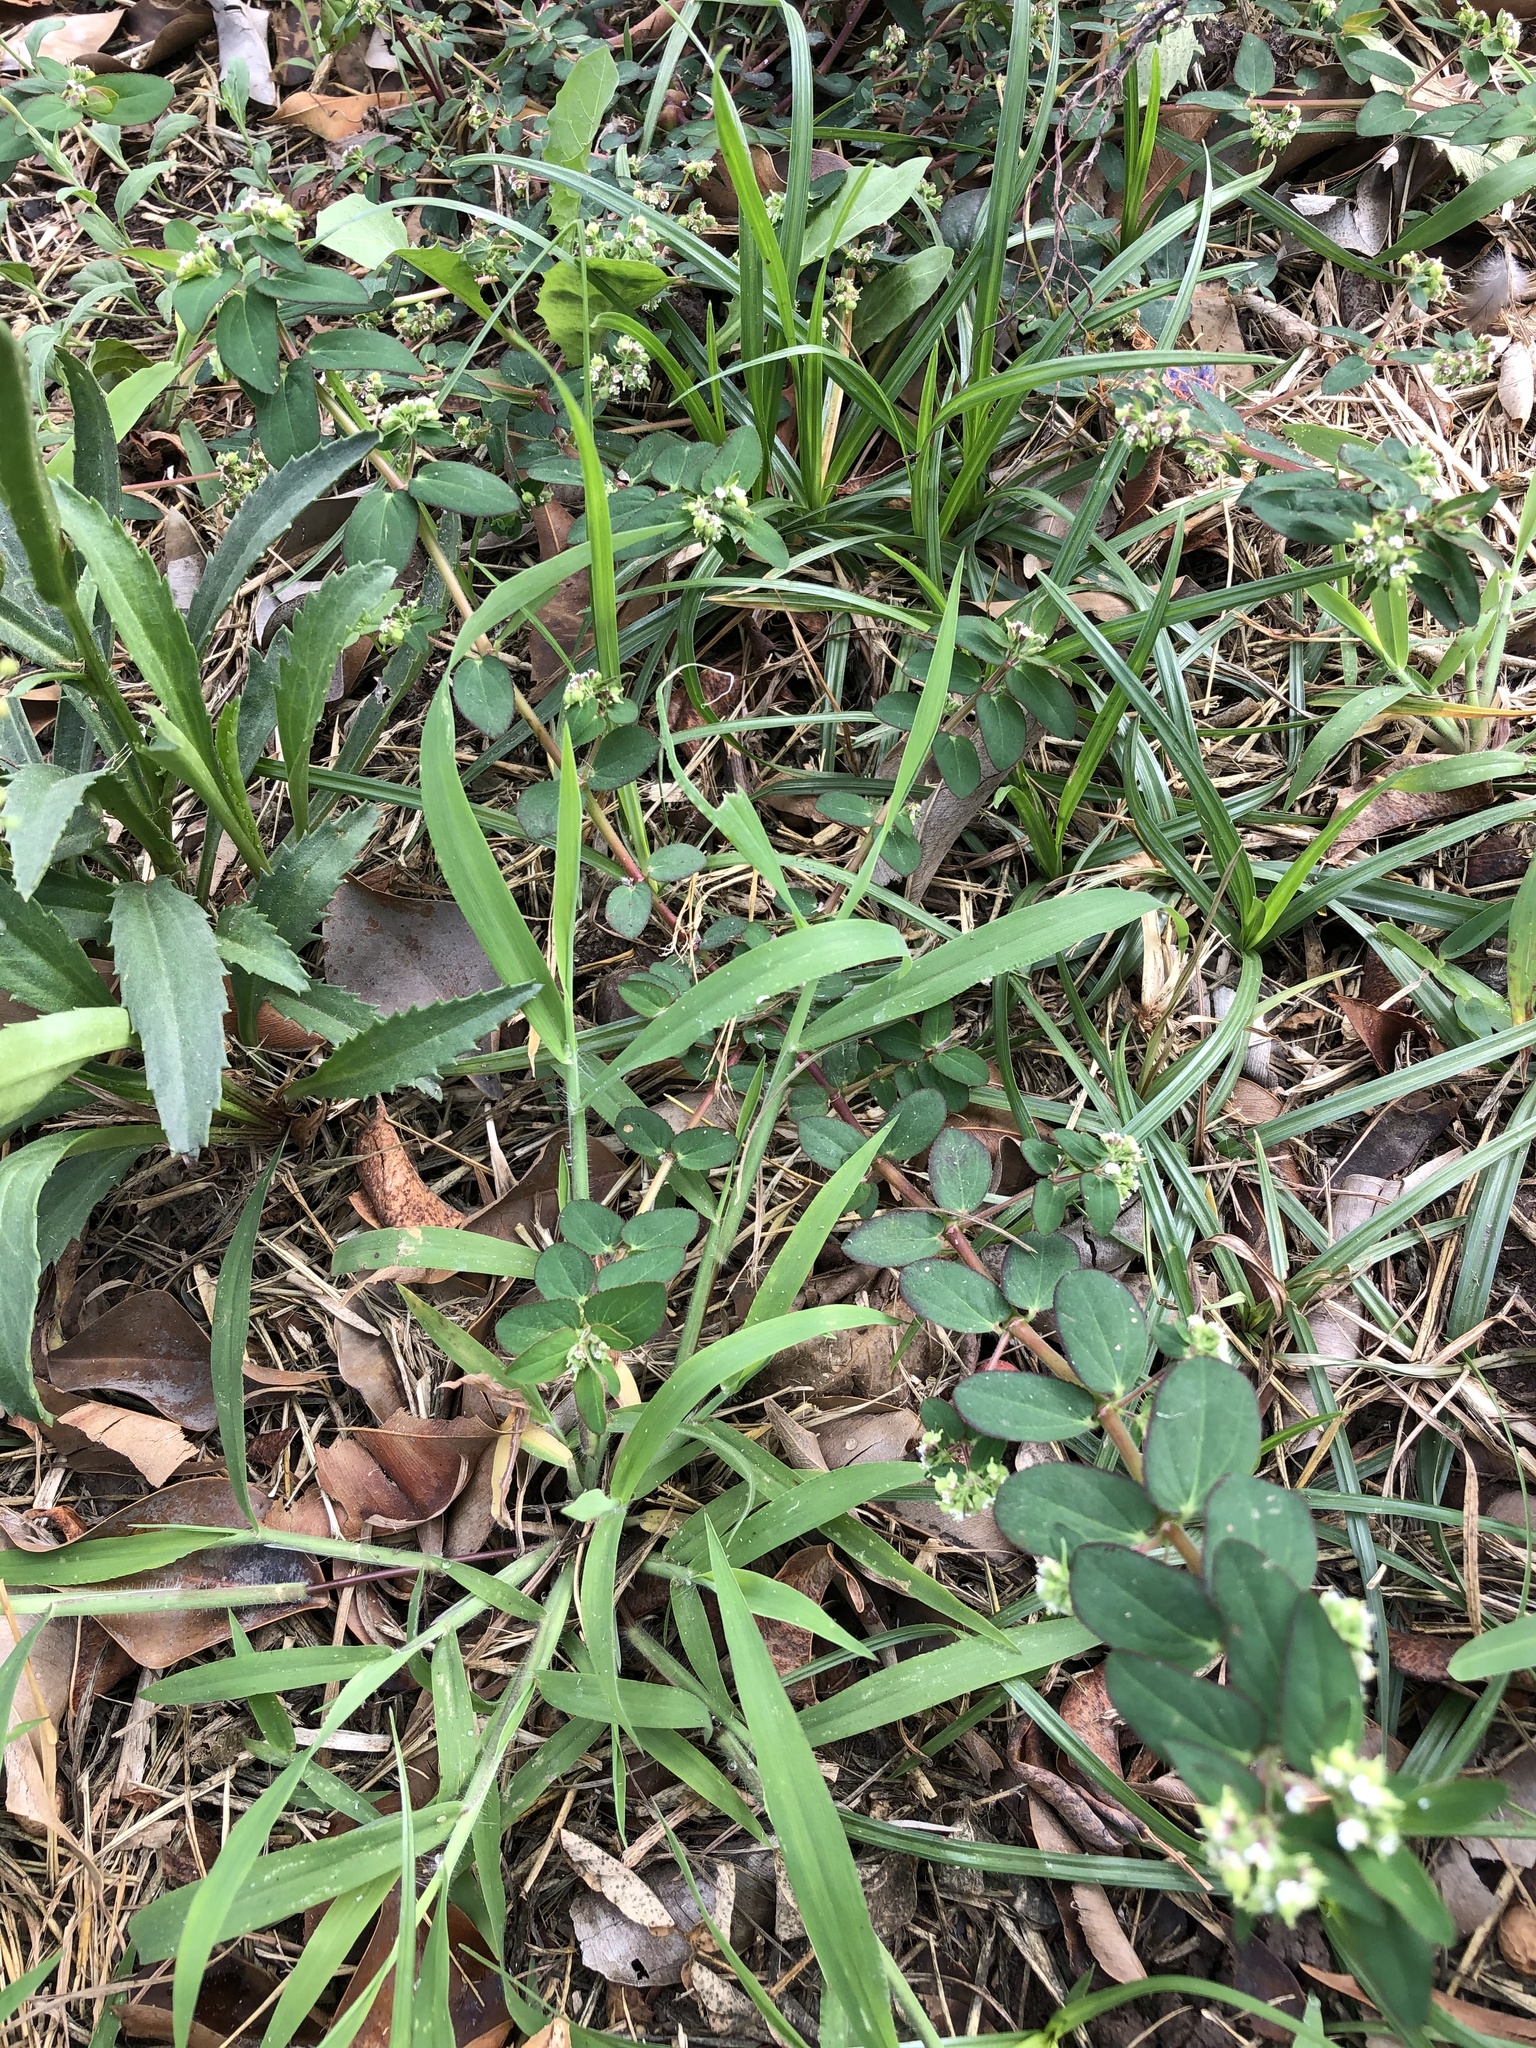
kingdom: Plantae
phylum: Tracheophyta
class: Magnoliopsida
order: Malpighiales
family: Euphorbiaceae
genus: Euphorbia
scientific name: Euphorbia lasiocarpa
